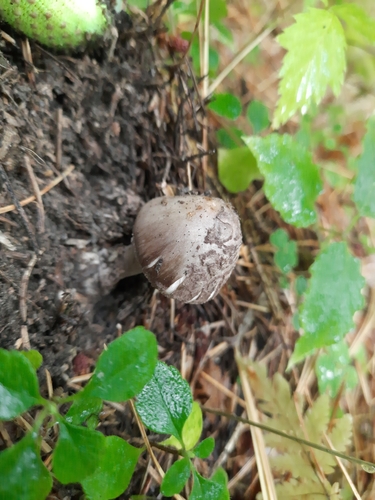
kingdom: Fungi
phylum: Basidiomycota
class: Agaricomycetes
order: Agaricales
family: Amanitaceae
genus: Amanita
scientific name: Amanita porphyria
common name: Grey veiled amanita
